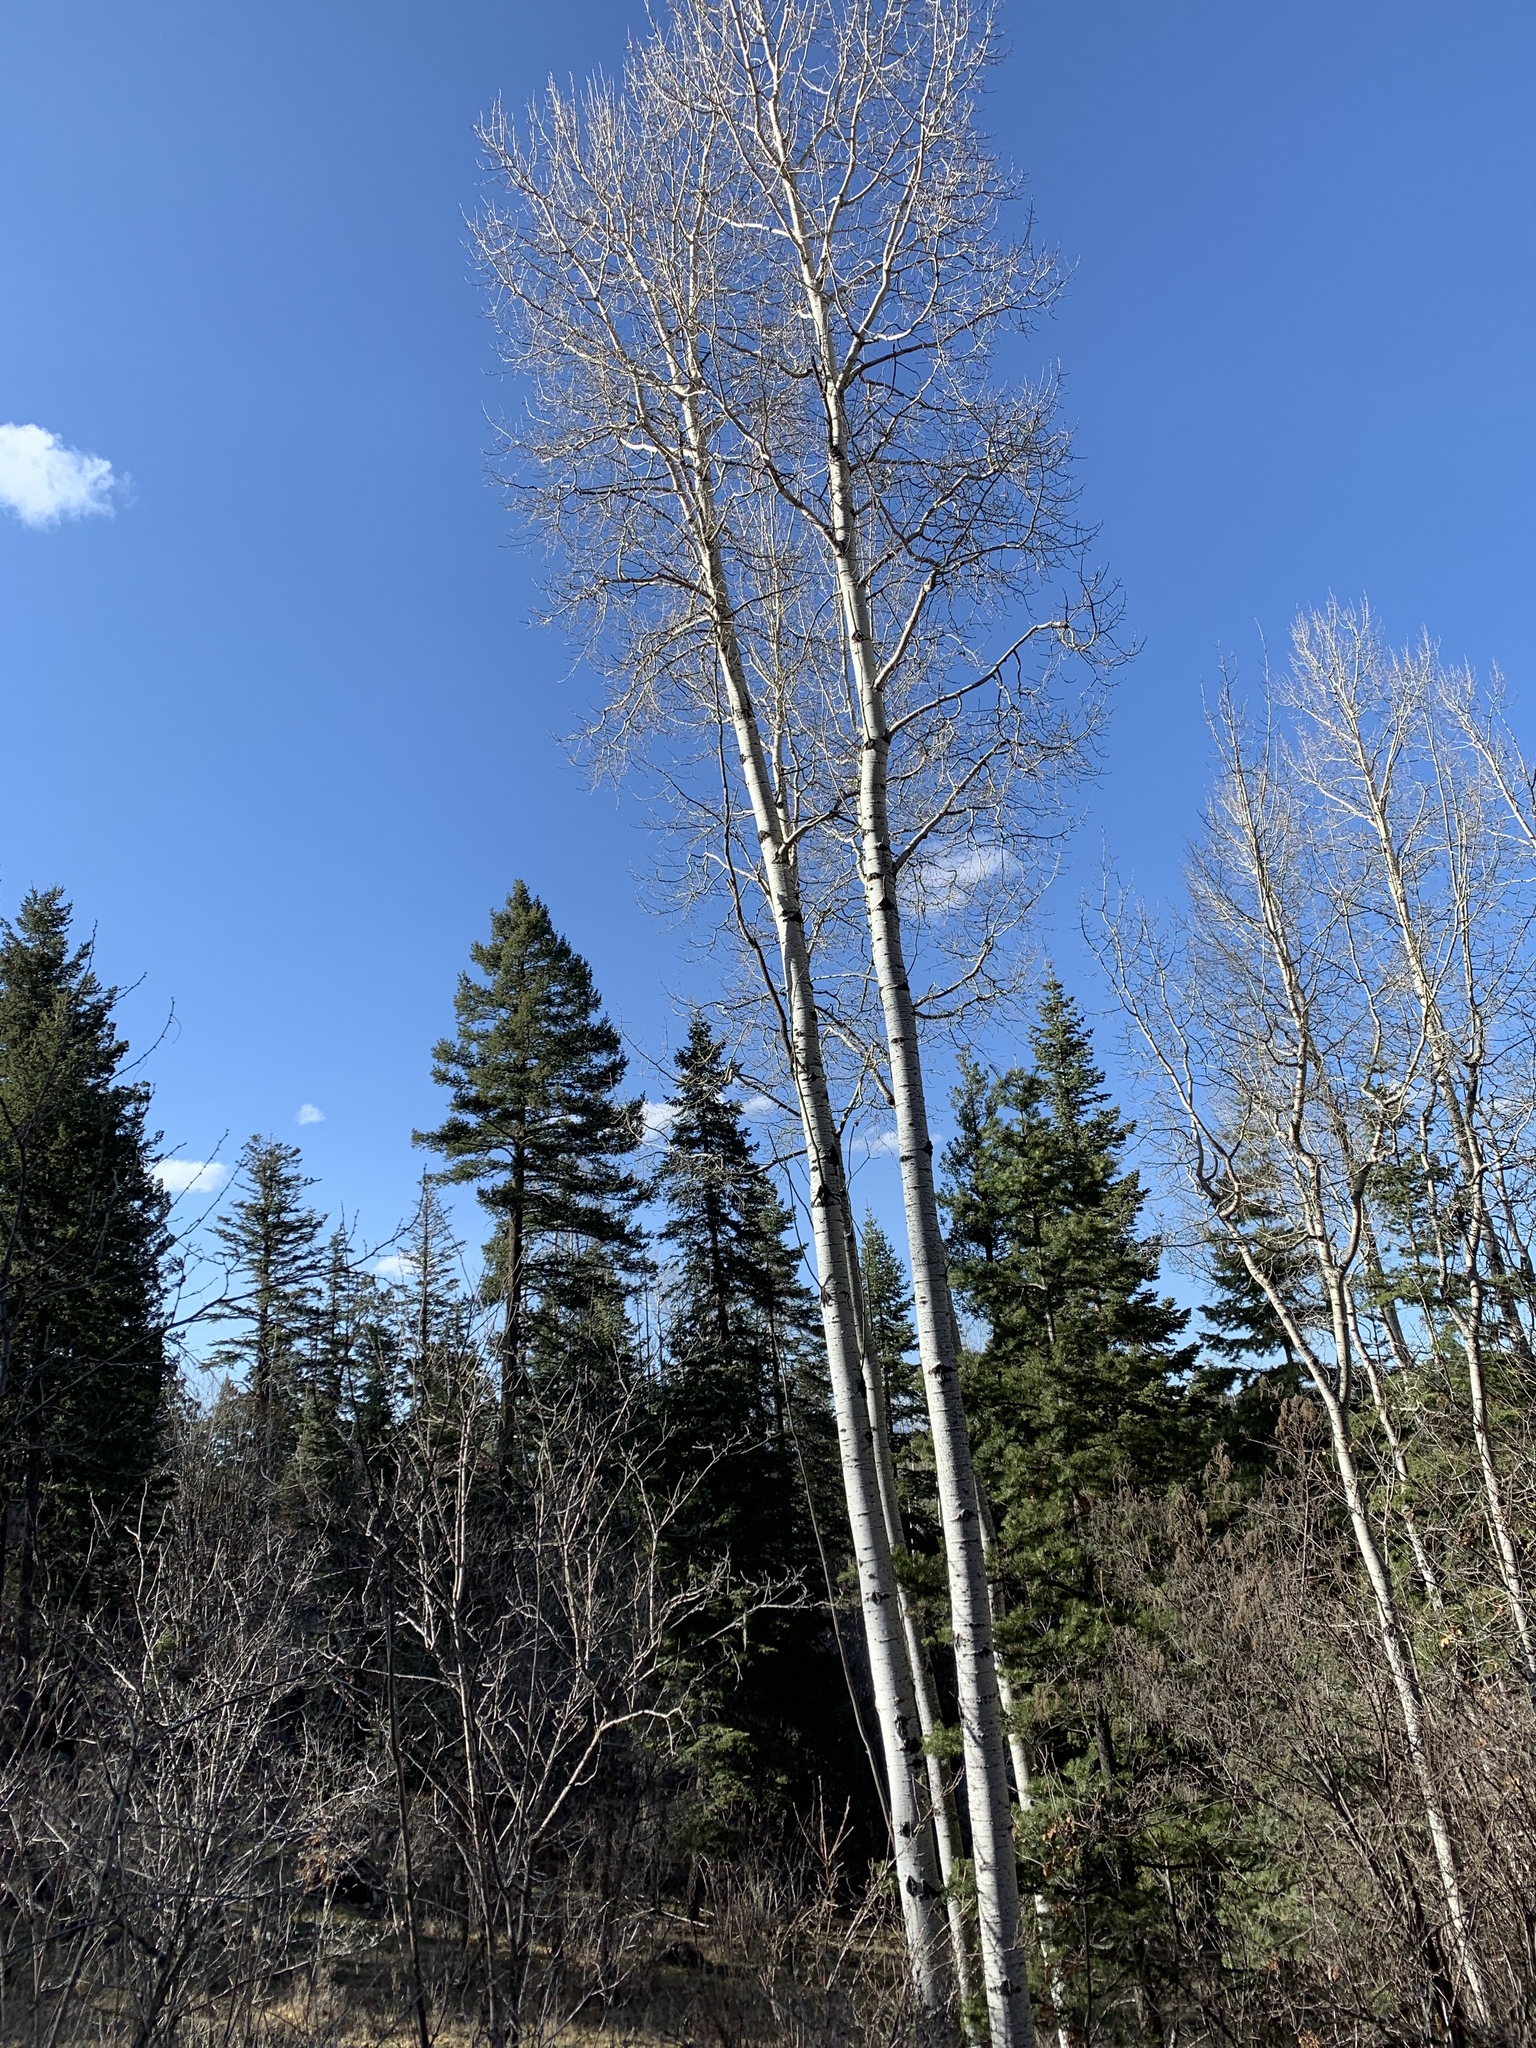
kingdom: Plantae
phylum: Tracheophyta
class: Magnoliopsida
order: Malpighiales
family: Salicaceae
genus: Populus
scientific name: Populus tremuloides
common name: Quaking aspen
